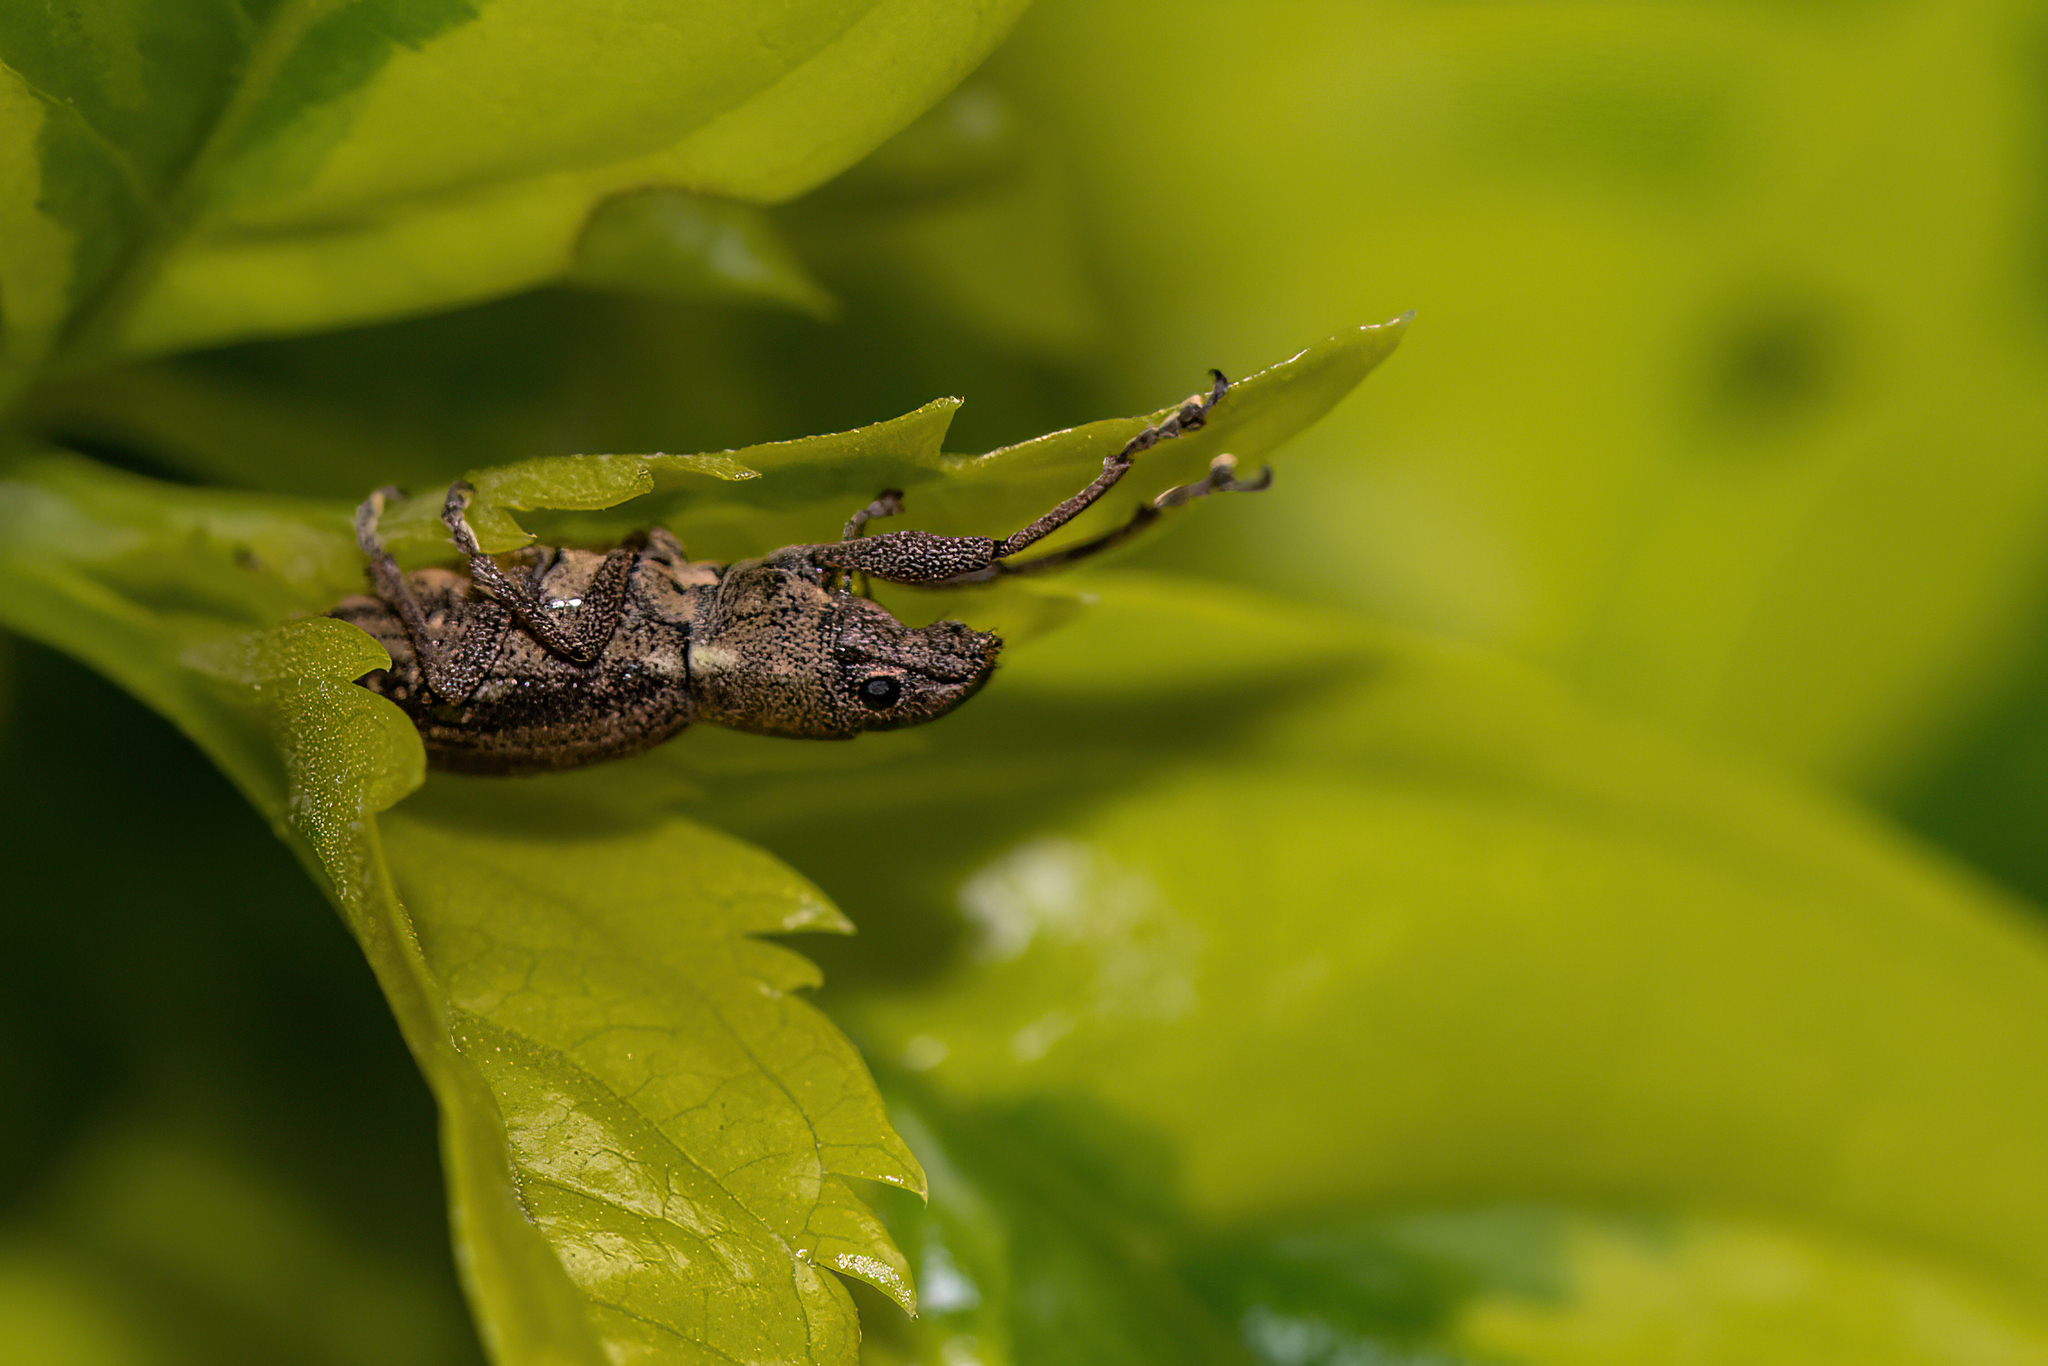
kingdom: Animalia
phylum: Arthropoda
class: Insecta
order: Coleoptera
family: Curculionidae
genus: Naupactus
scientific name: Naupactus cervinus
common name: Fuller rose beetle
